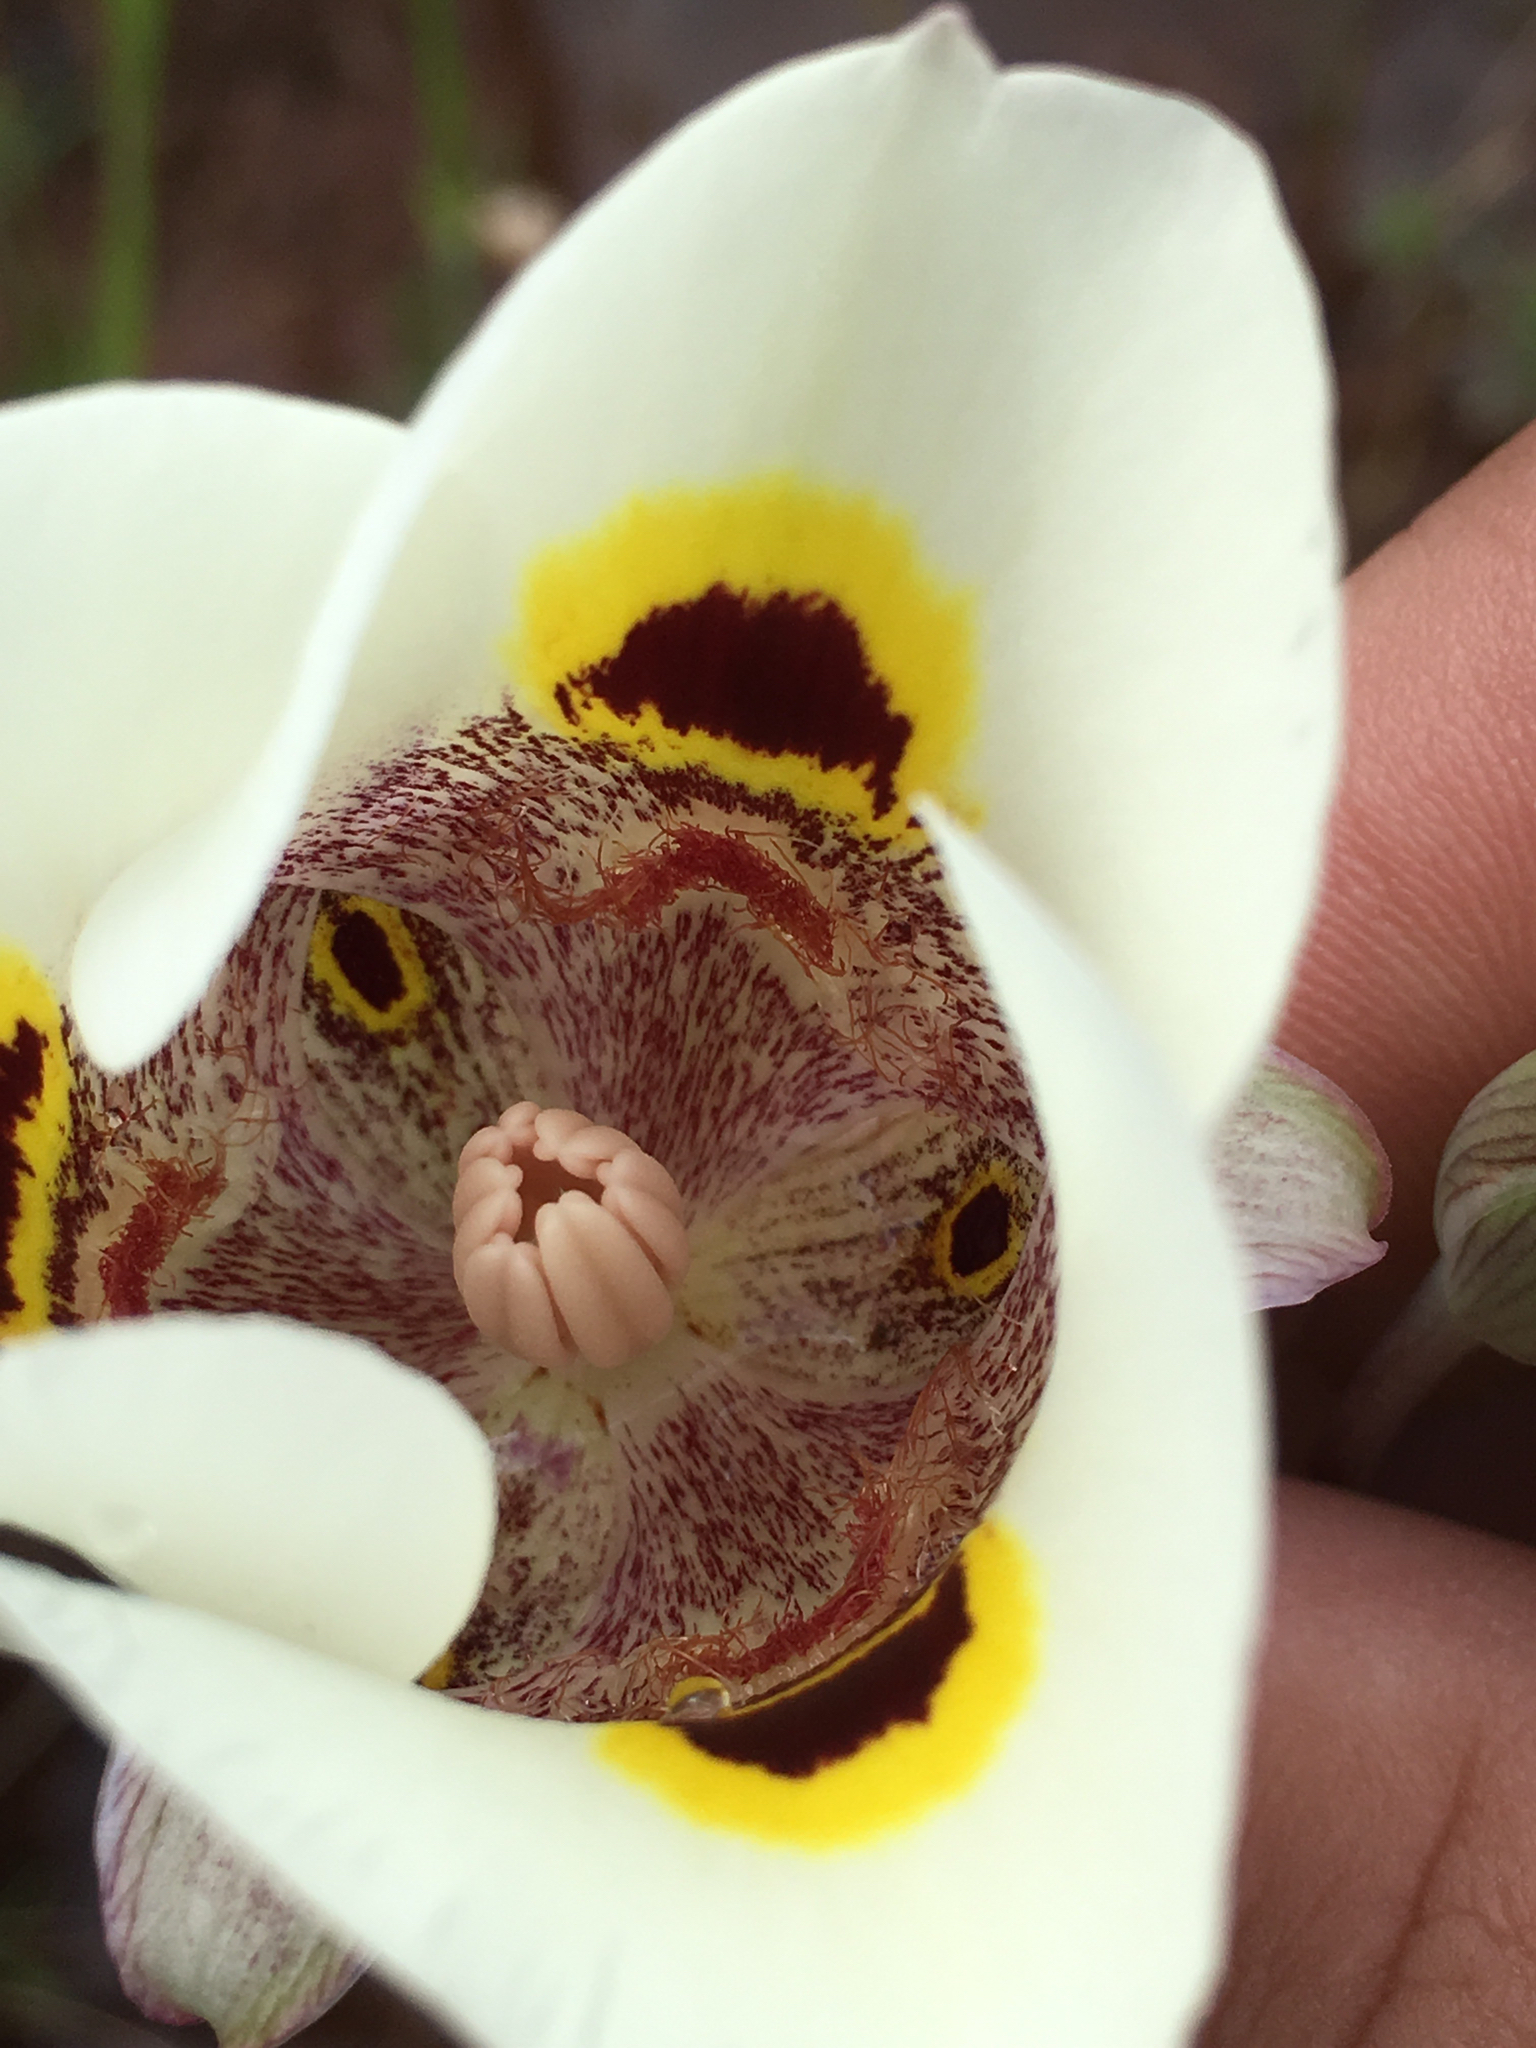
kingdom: Plantae
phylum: Tracheophyta
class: Liliopsida
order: Liliales
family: Liliaceae
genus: Calochortus
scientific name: Calochortus superbus
